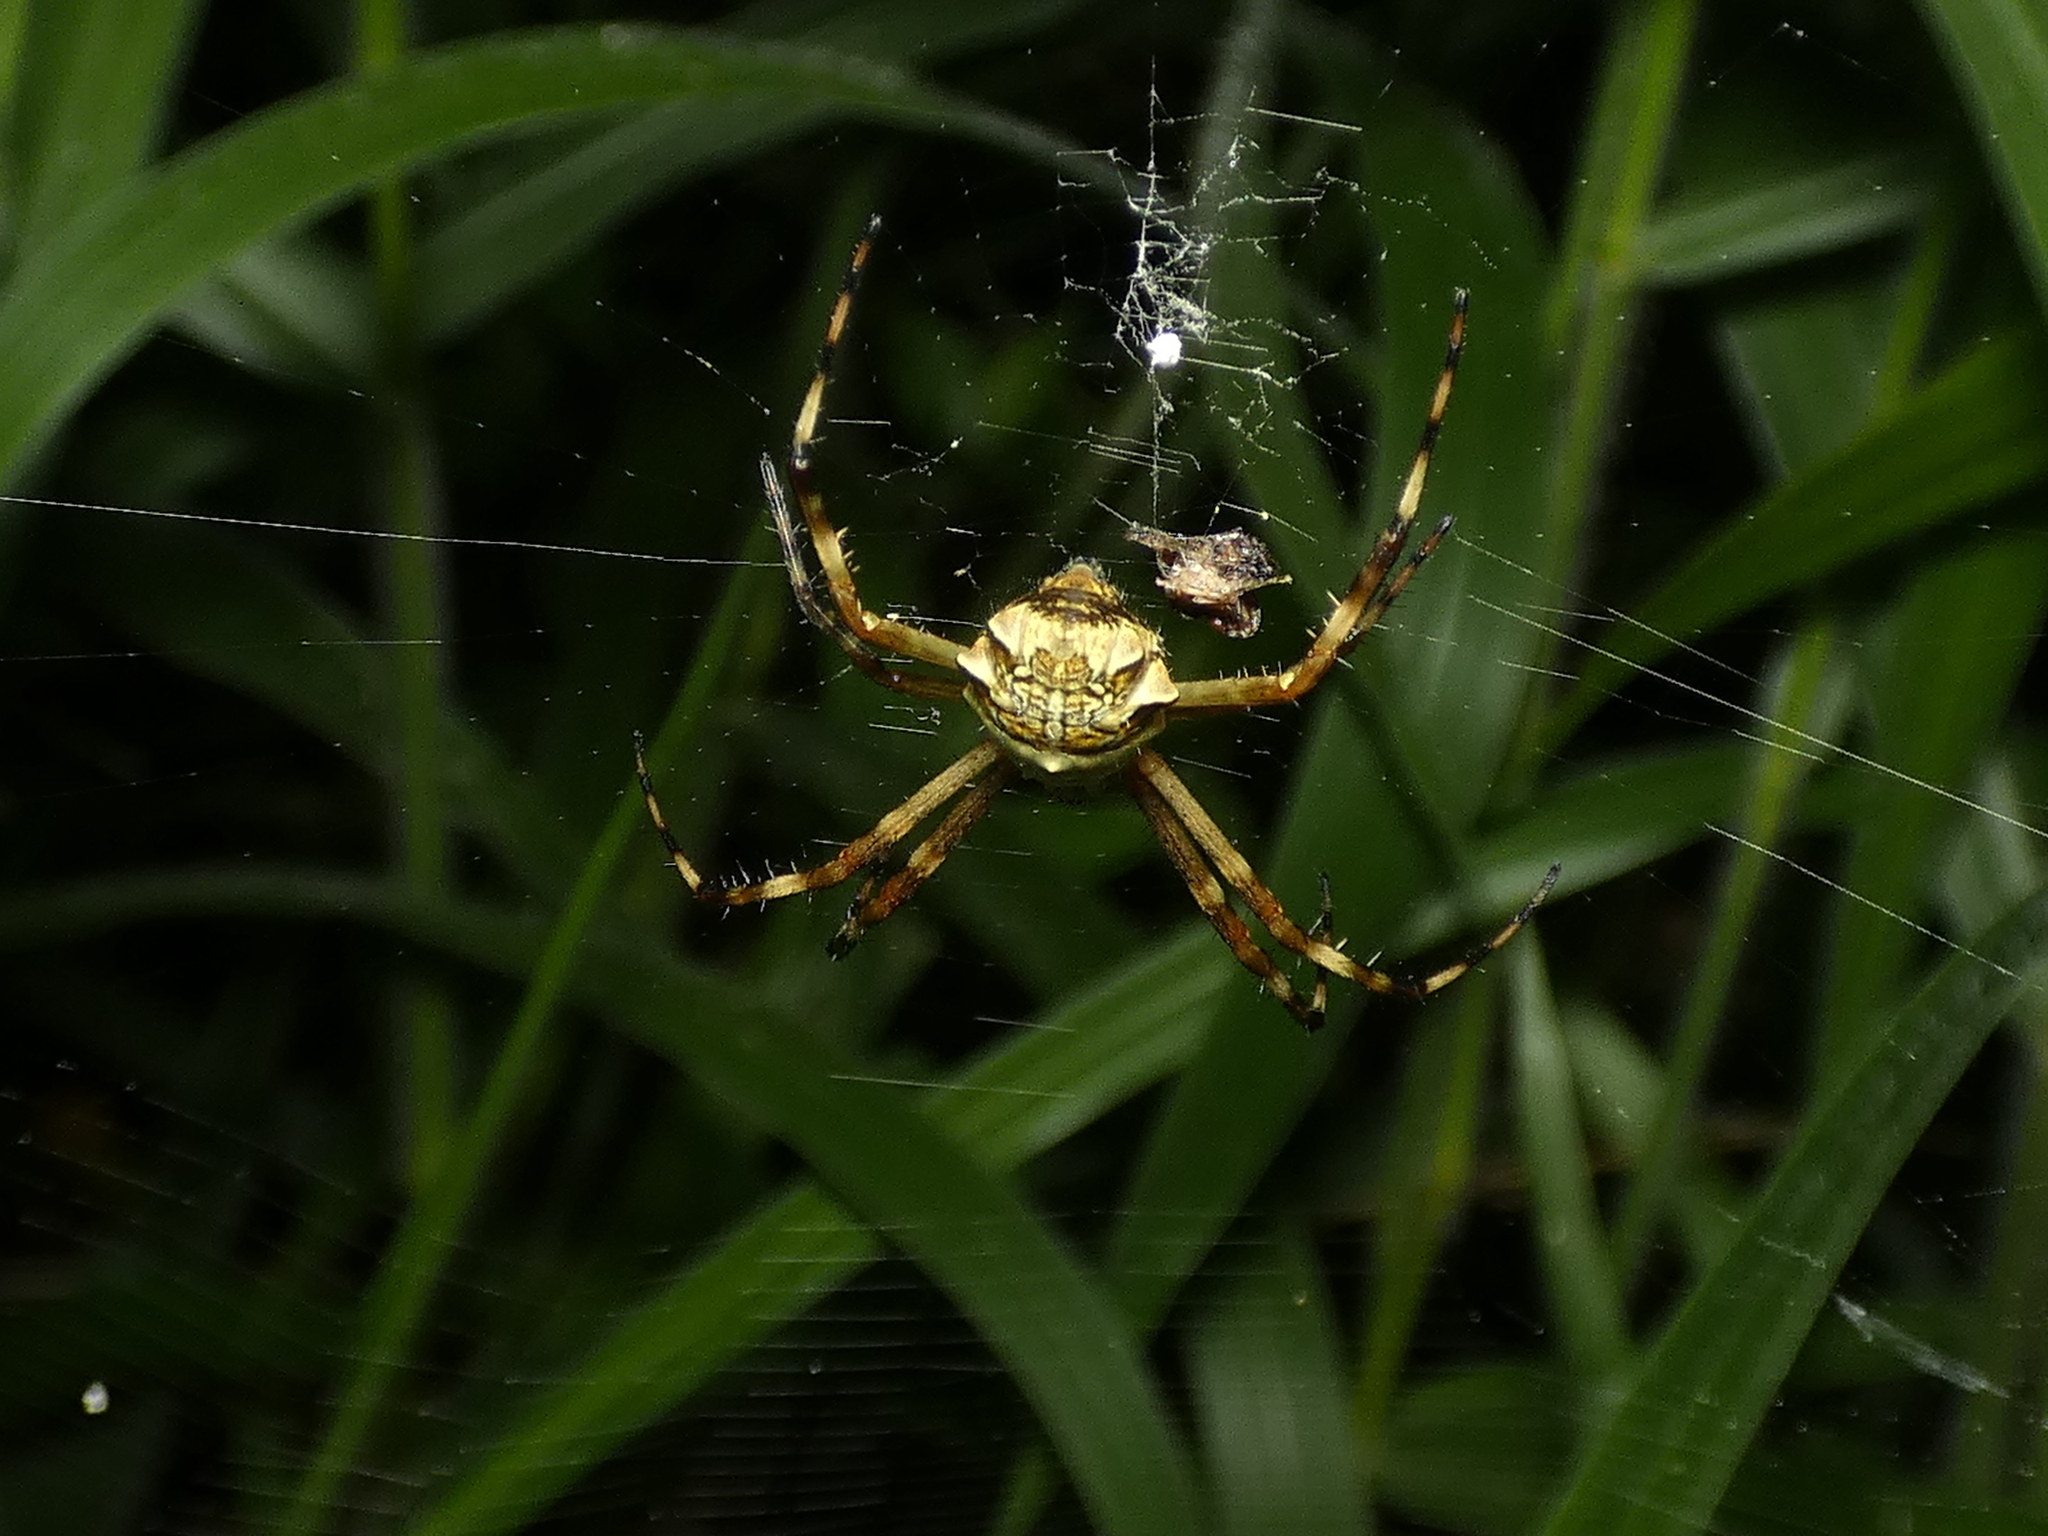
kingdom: Animalia
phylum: Arthropoda
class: Arachnida
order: Araneae
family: Araneidae
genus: Argiope
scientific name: Argiope argentata
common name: Orb weavers
